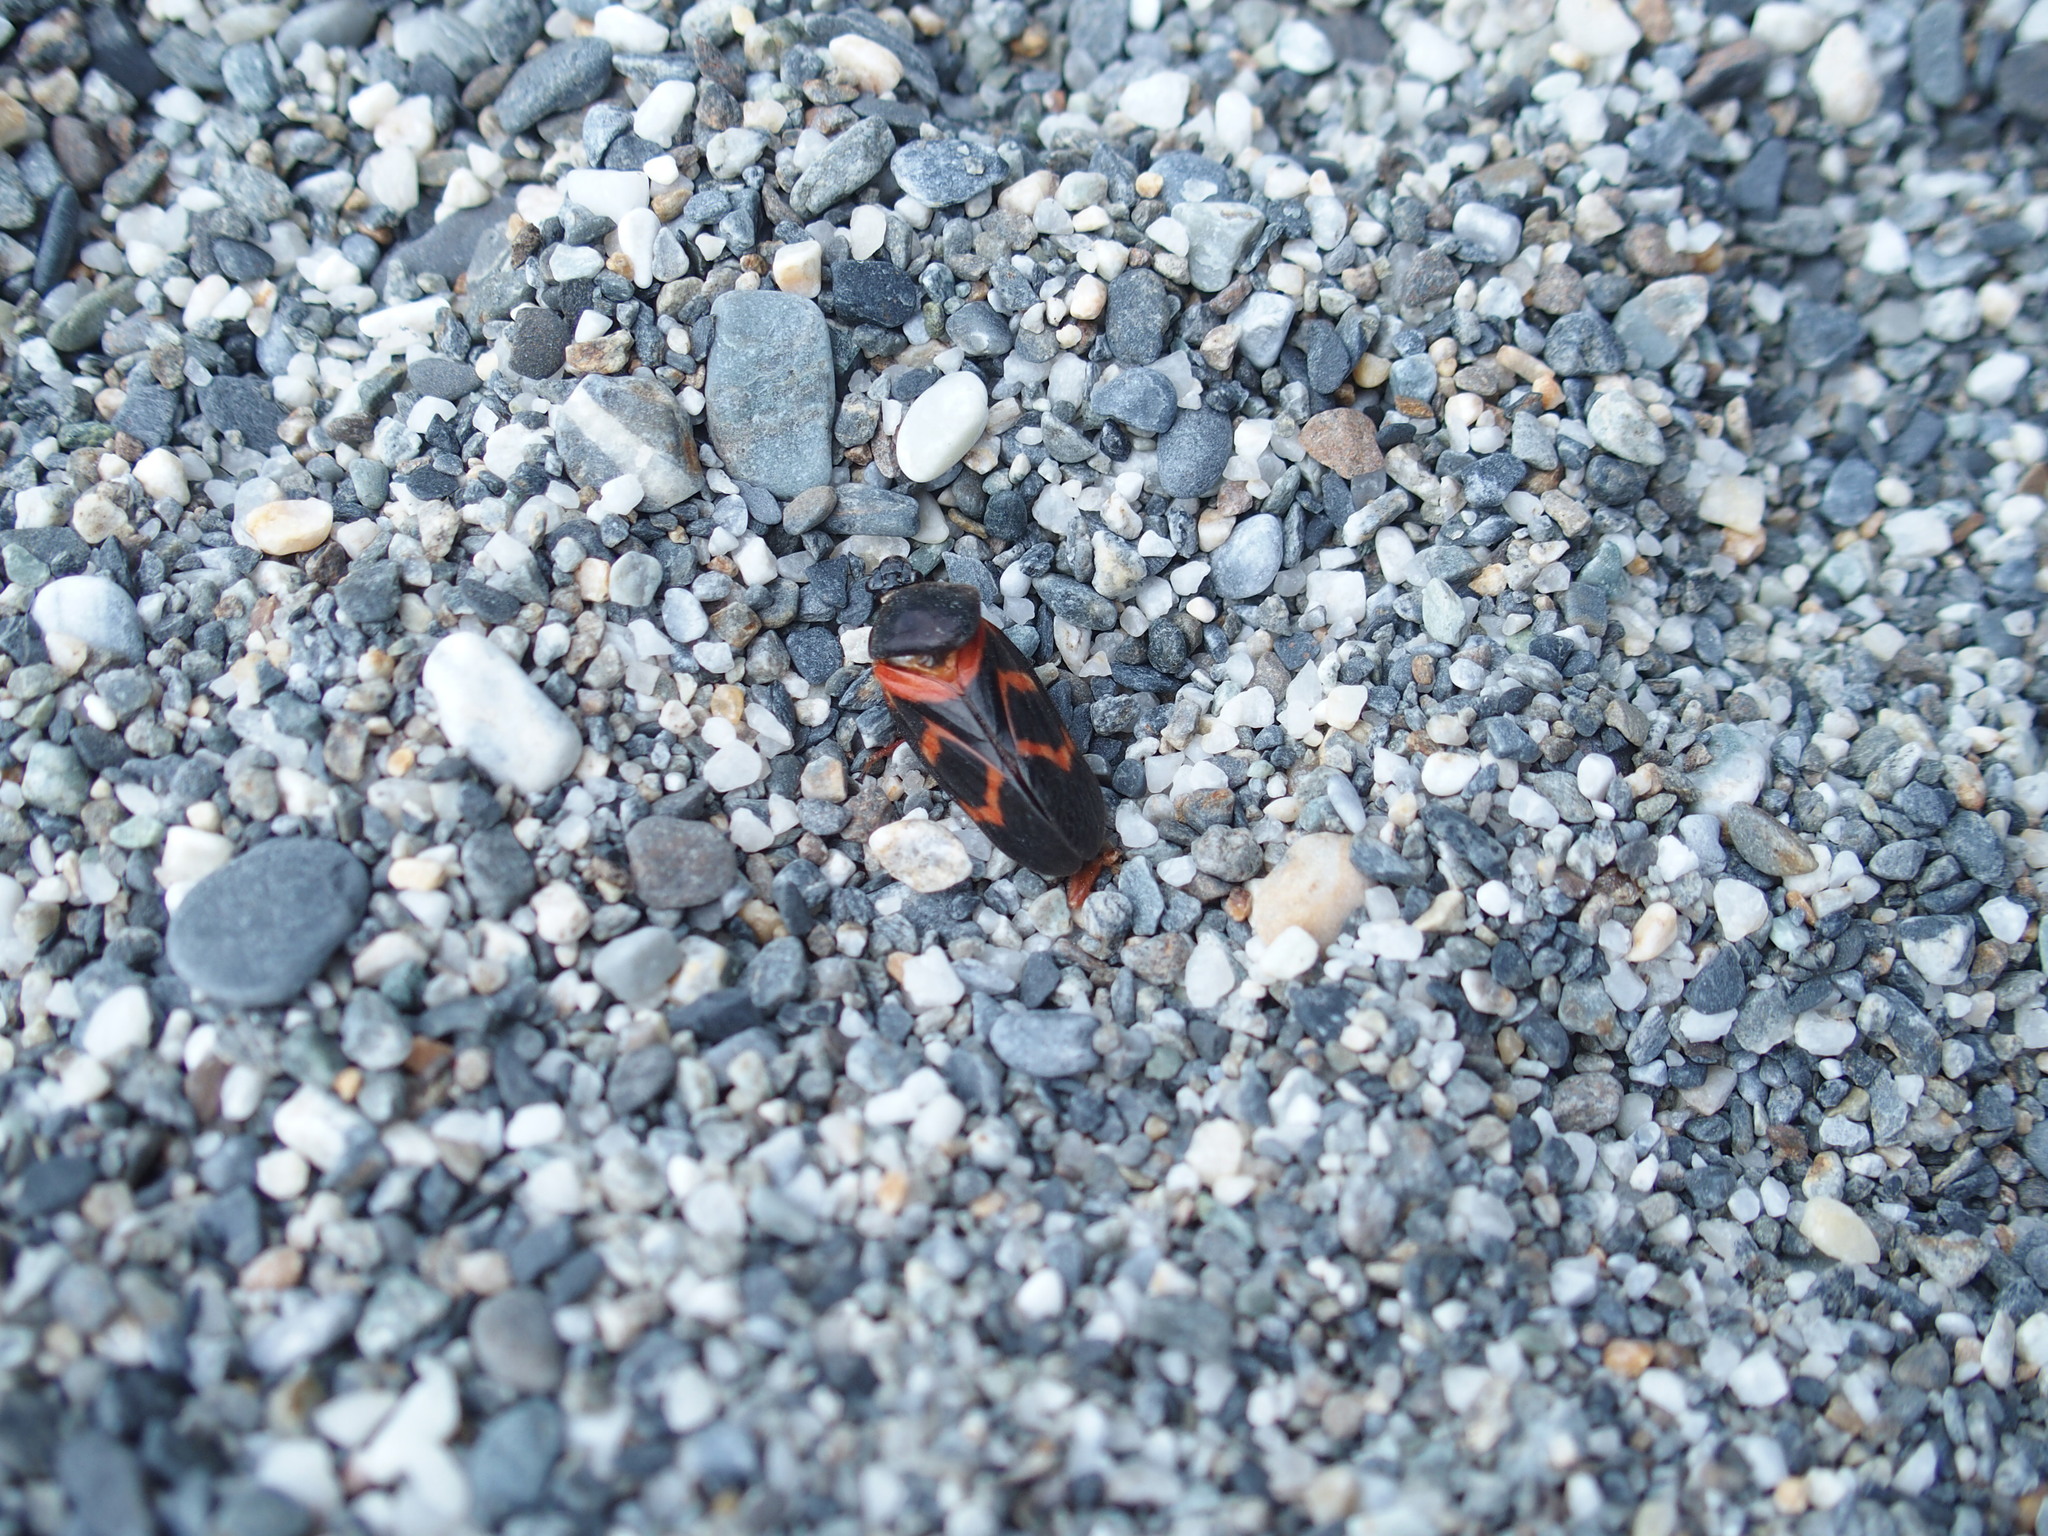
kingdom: Animalia
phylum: Arthropoda
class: Insecta
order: Hemiptera
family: Cercopidae
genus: Okiscarta
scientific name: Okiscarta uchidae
